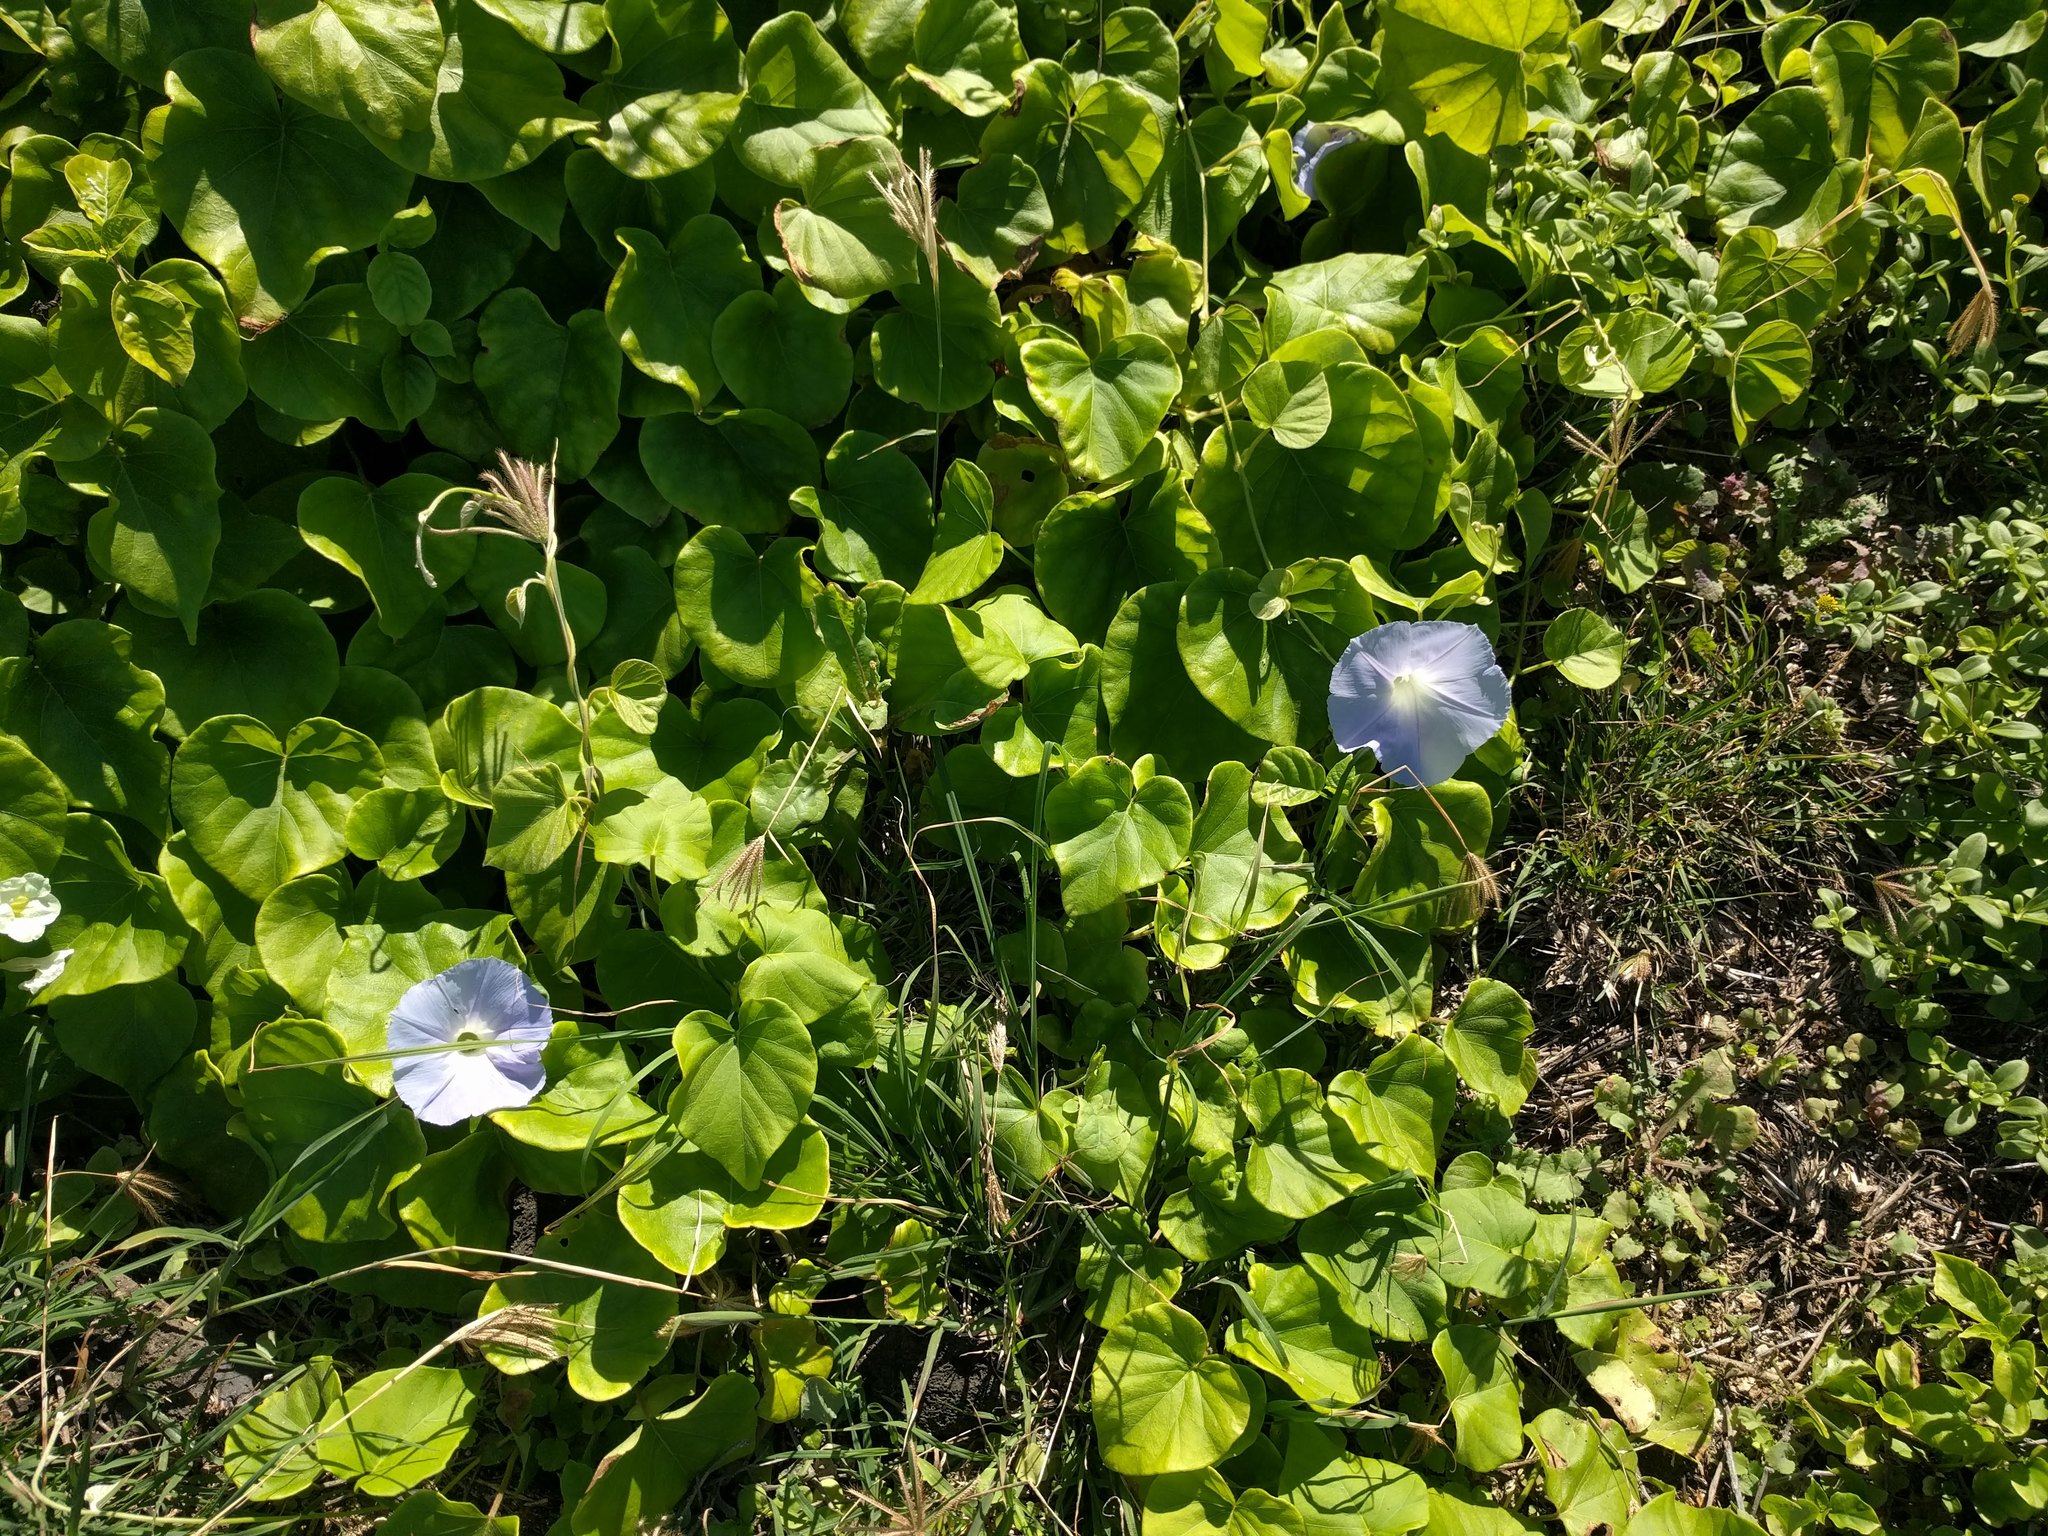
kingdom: Plantae
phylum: Tracheophyta
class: Magnoliopsida
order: Solanales
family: Convolvulaceae
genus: Ipomoea
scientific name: Ipomoea indica
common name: Blue dawnflower
